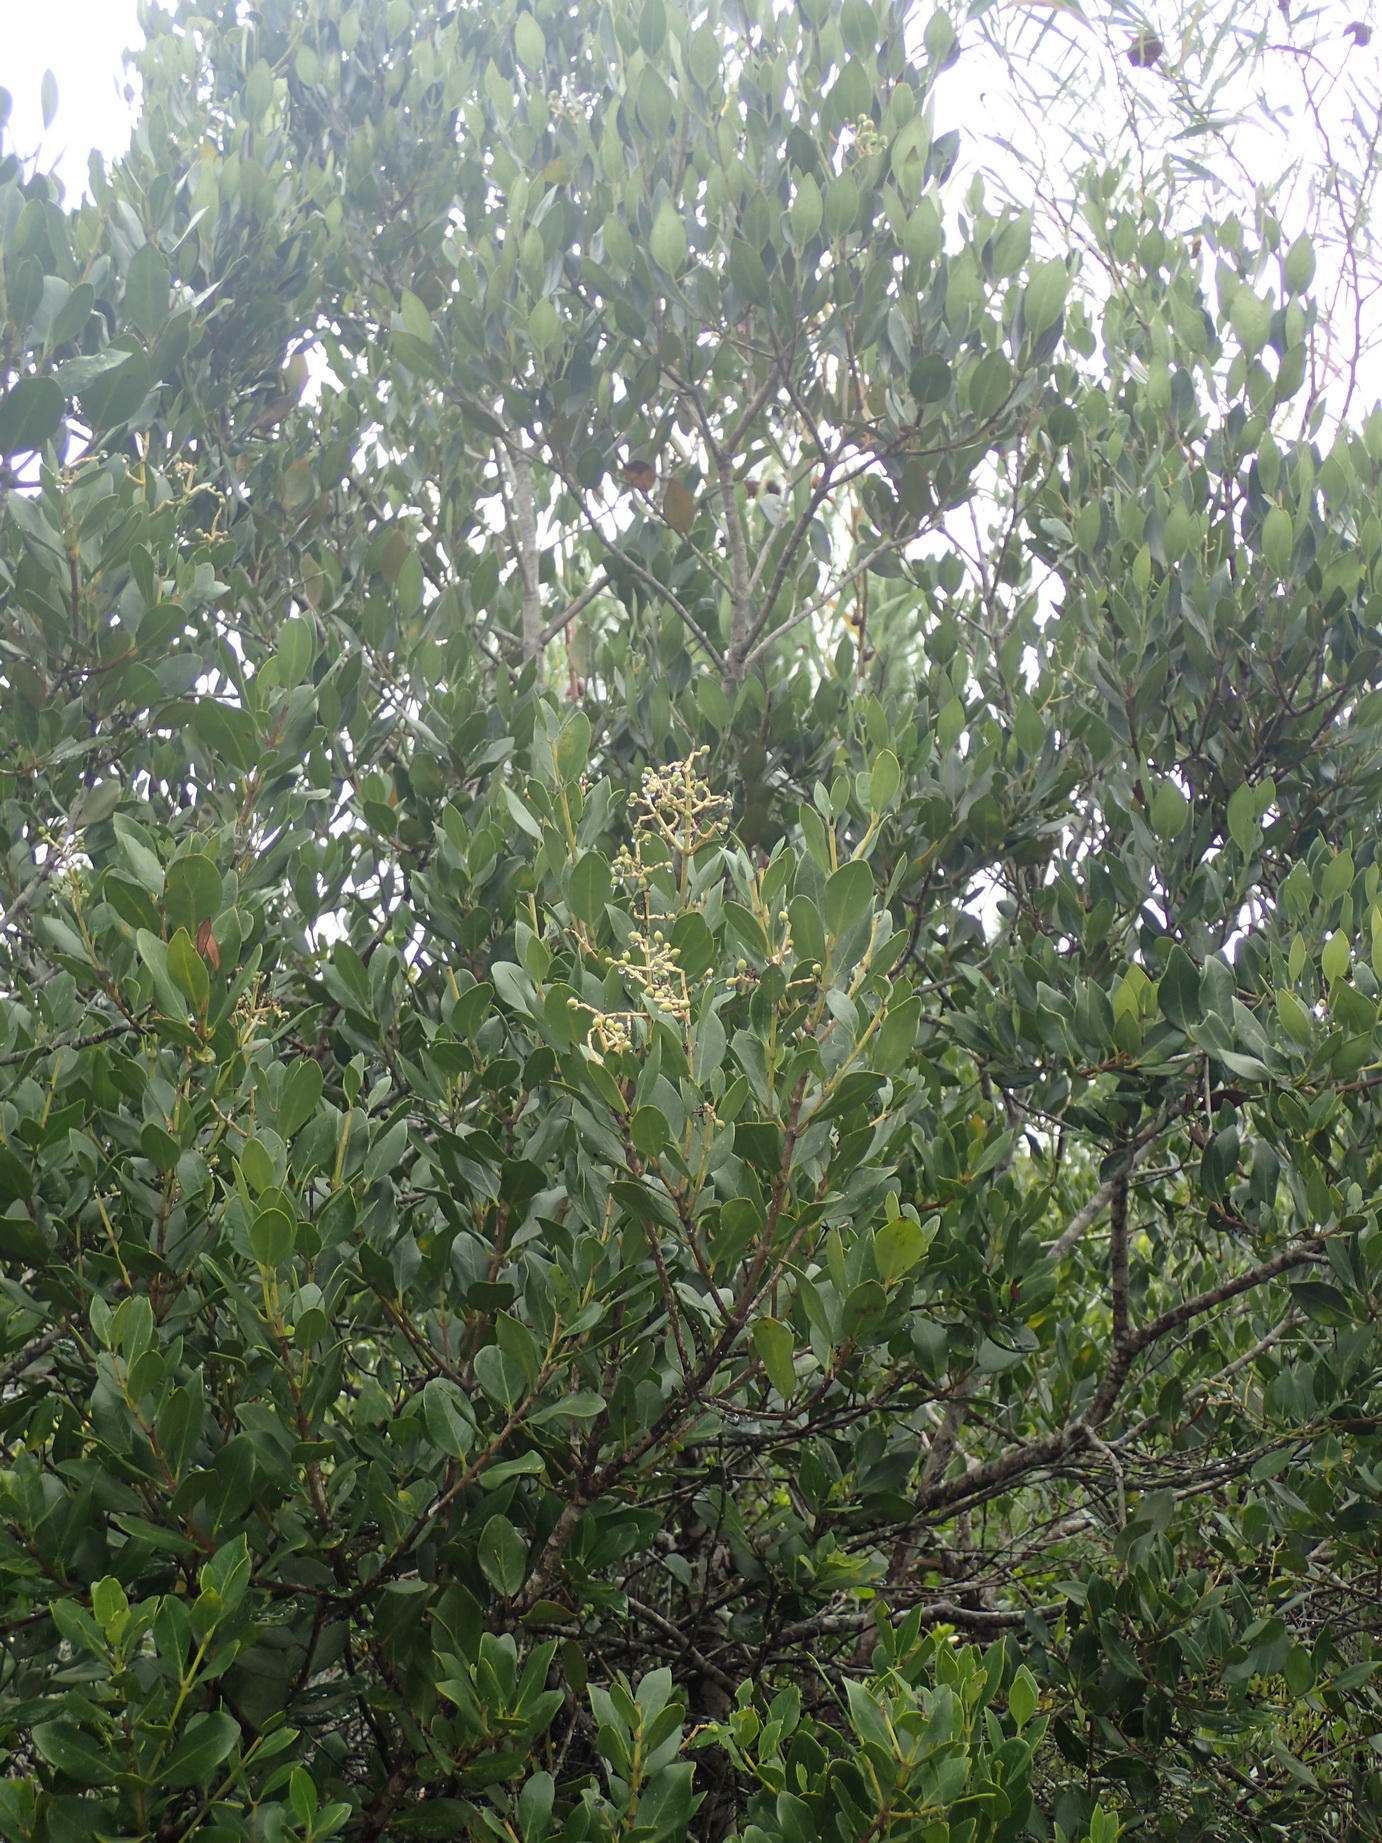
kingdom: Plantae
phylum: Tracheophyta
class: Magnoliopsida
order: Lamiales
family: Oleaceae
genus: Olea
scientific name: Olea capensis
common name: Black ironwood
